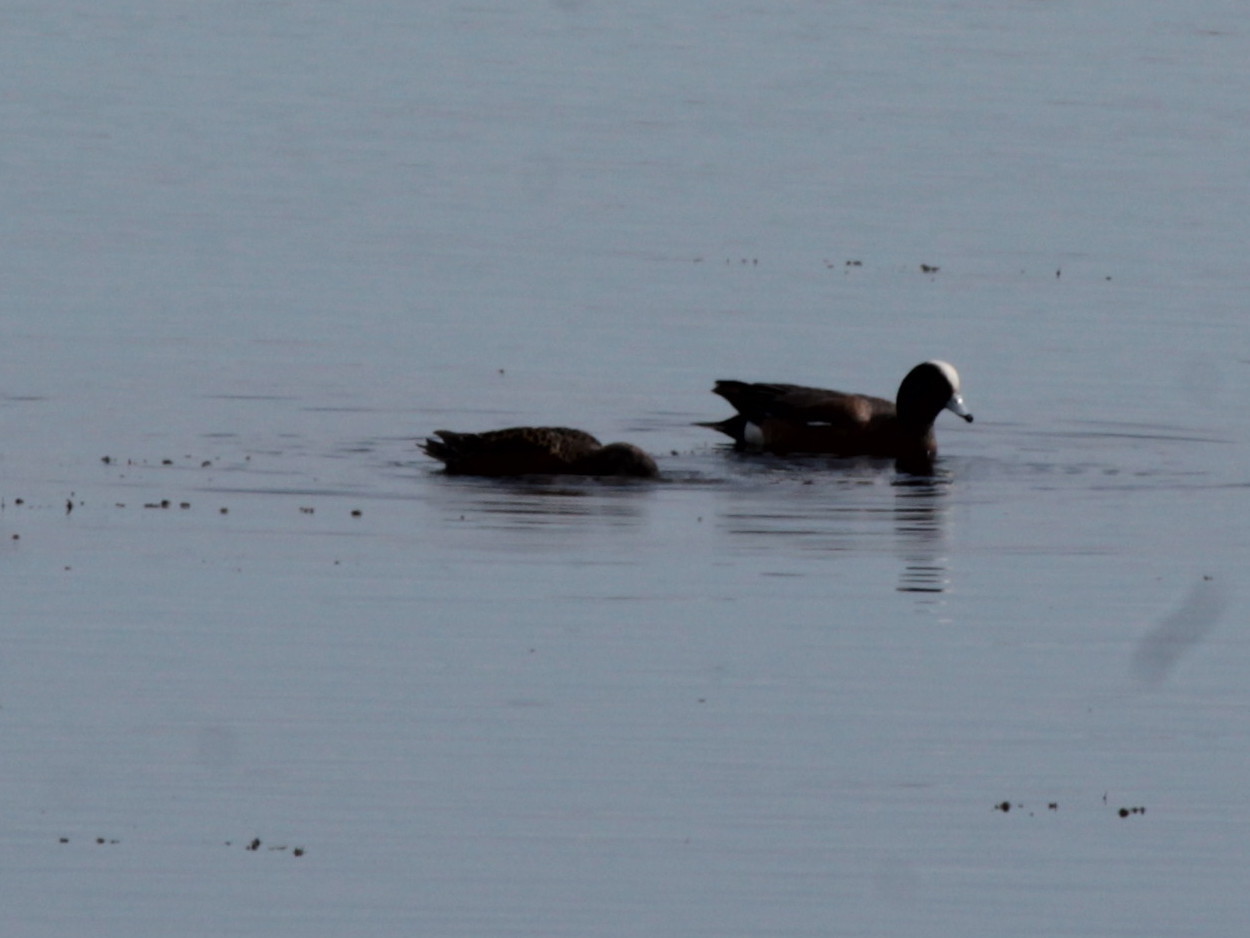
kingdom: Animalia
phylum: Chordata
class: Aves
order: Anseriformes
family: Anatidae
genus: Mareca
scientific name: Mareca americana
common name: American wigeon
